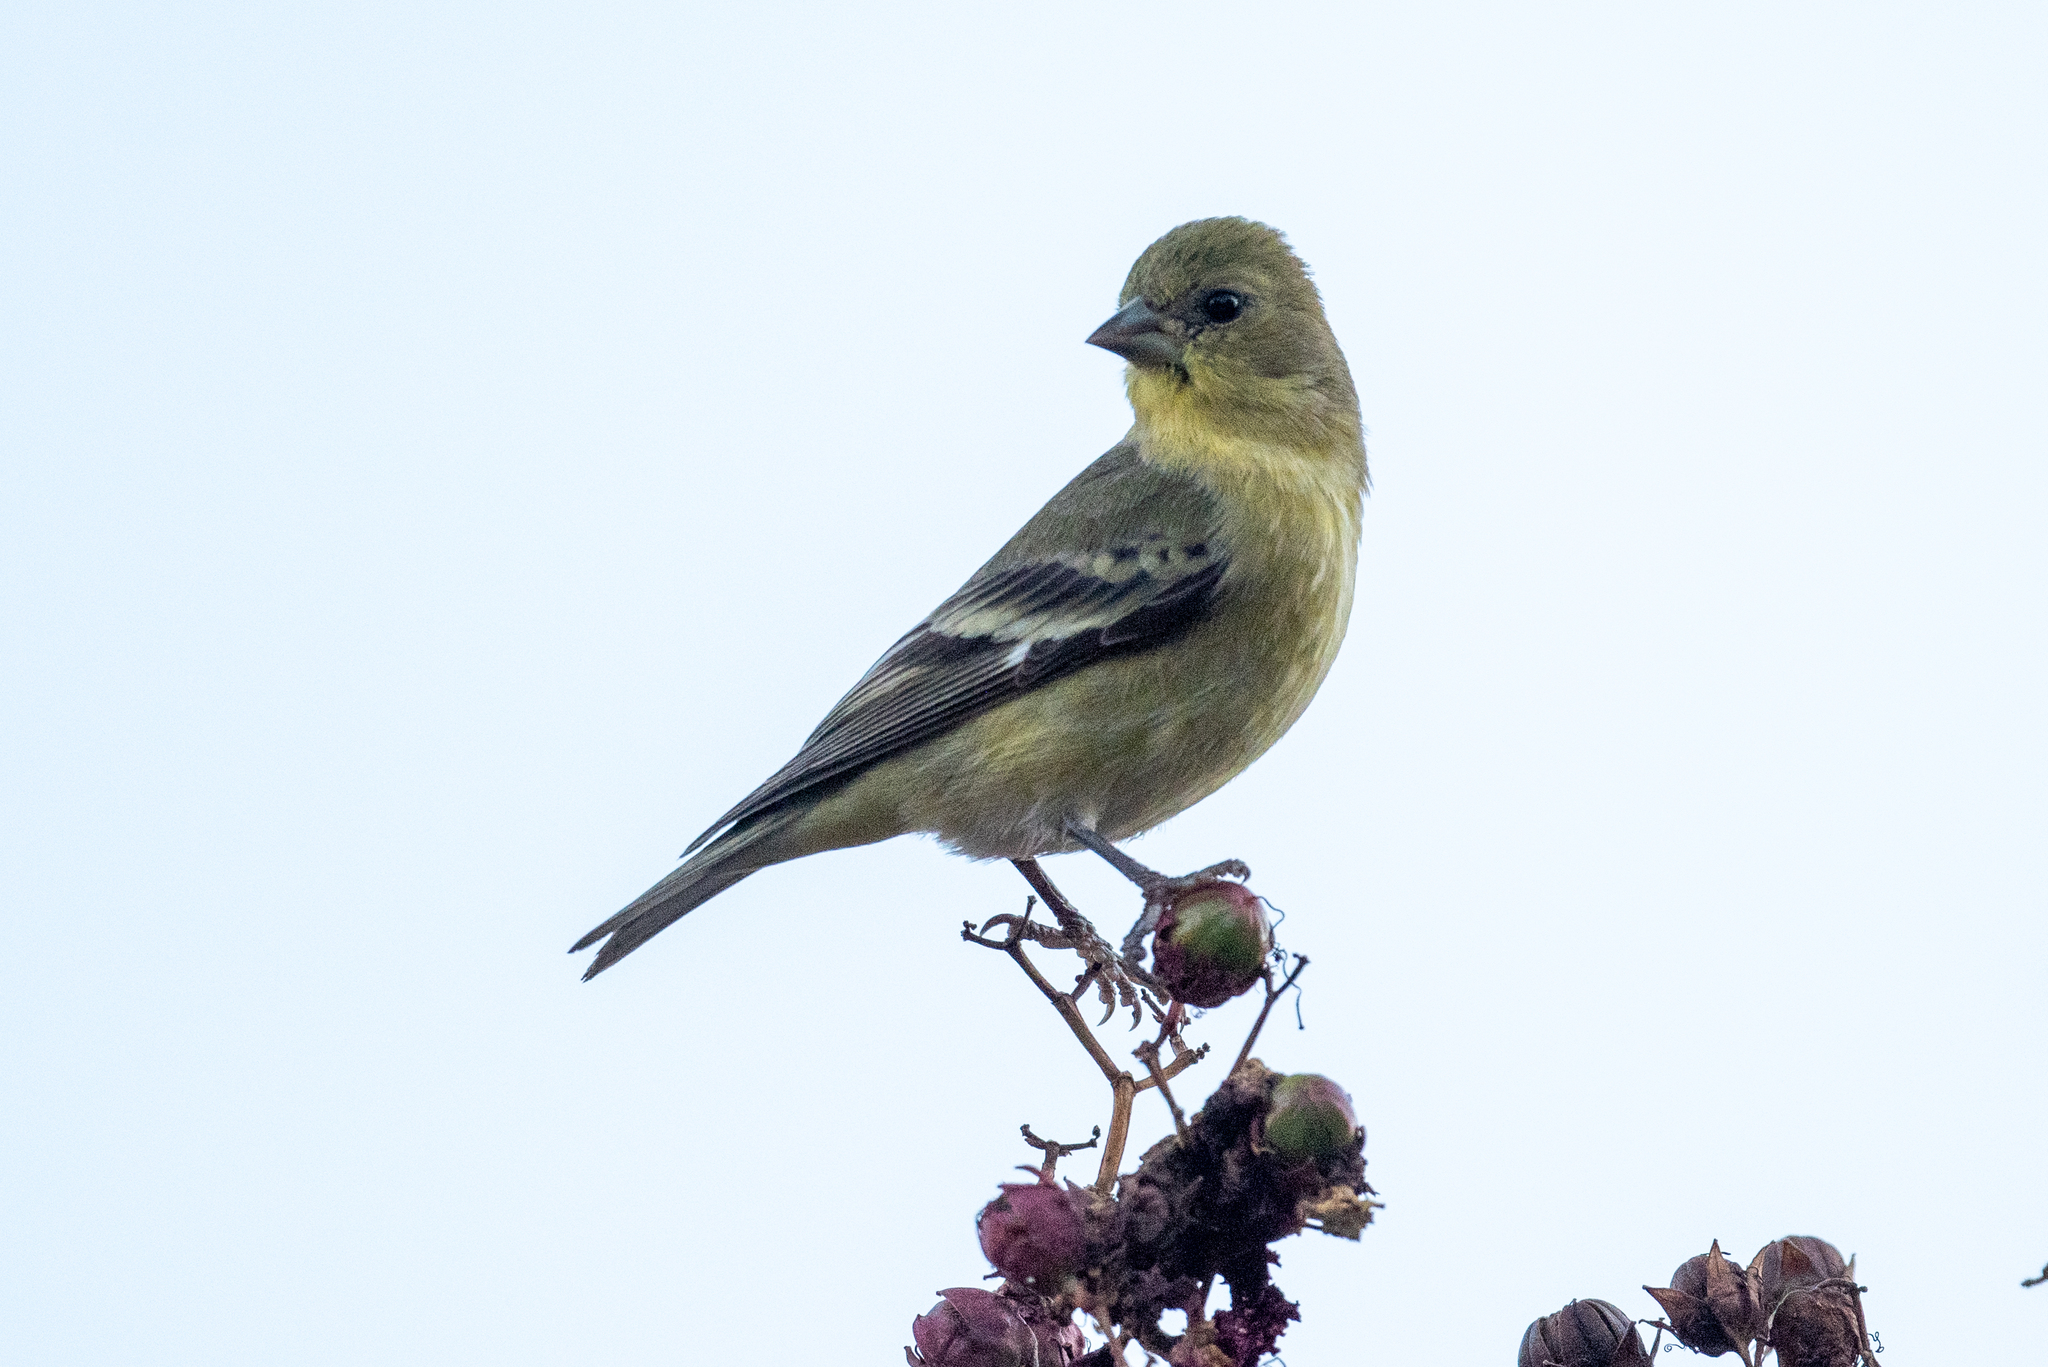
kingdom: Animalia
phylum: Chordata
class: Aves
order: Passeriformes
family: Fringillidae
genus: Spinus
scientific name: Spinus psaltria
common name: Lesser goldfinch
